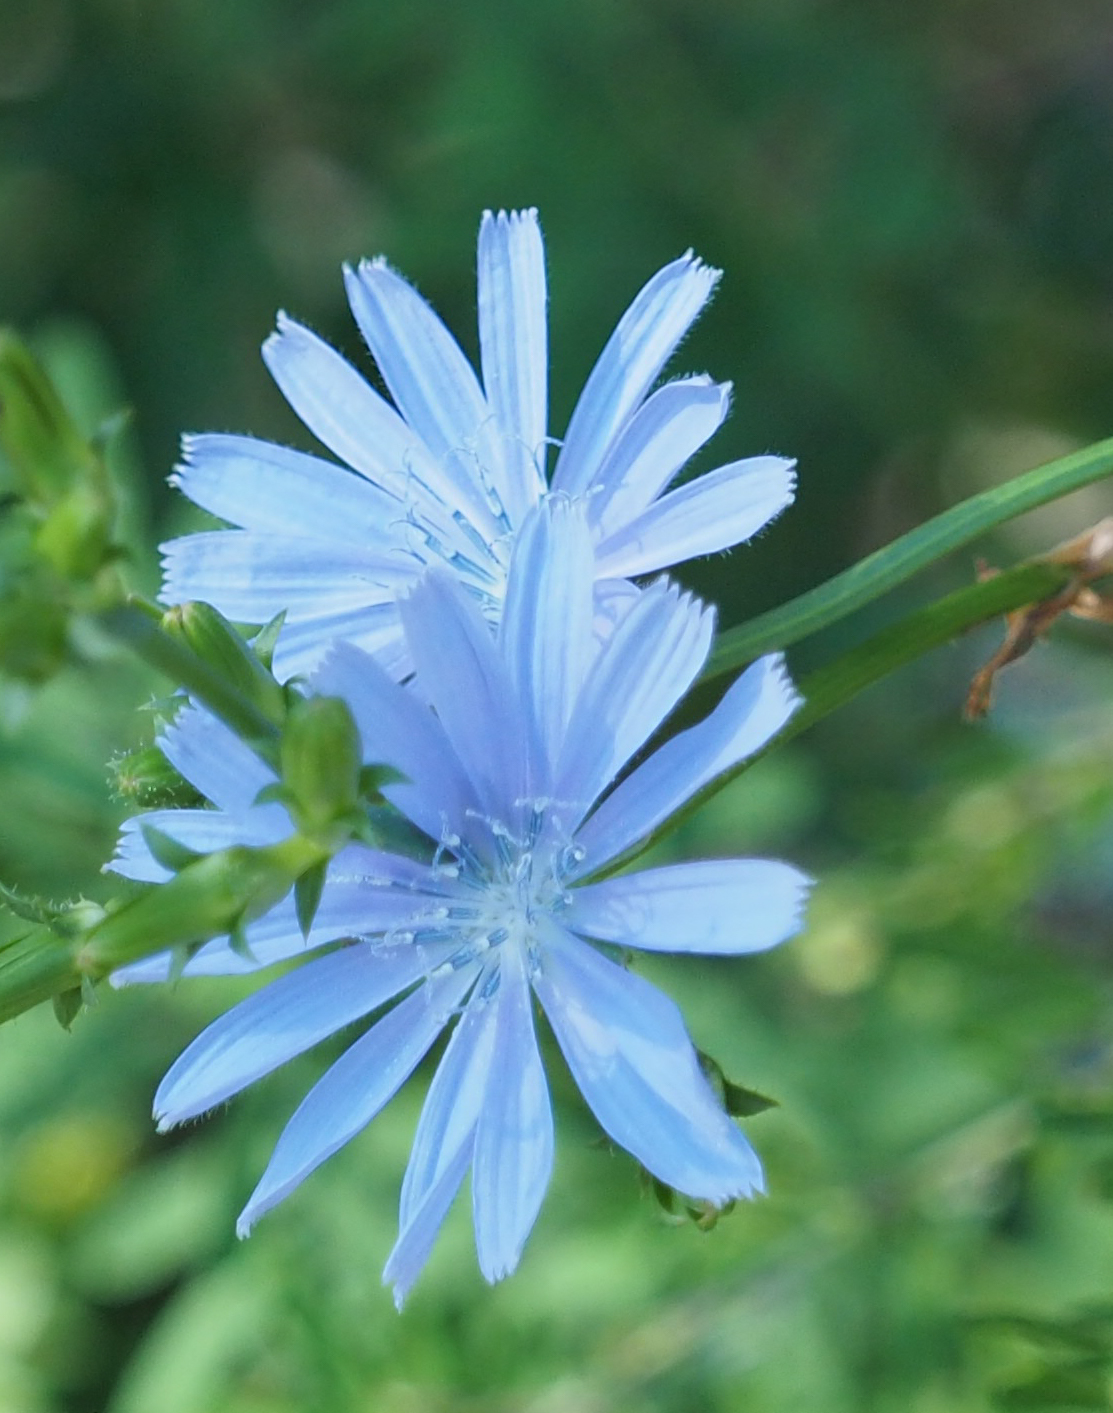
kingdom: Plantae
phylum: Tracheophyta
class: Magnoliopsida
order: Asterales
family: Asteraceae
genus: Cichorium
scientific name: Cichorium intybus
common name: Chicory
